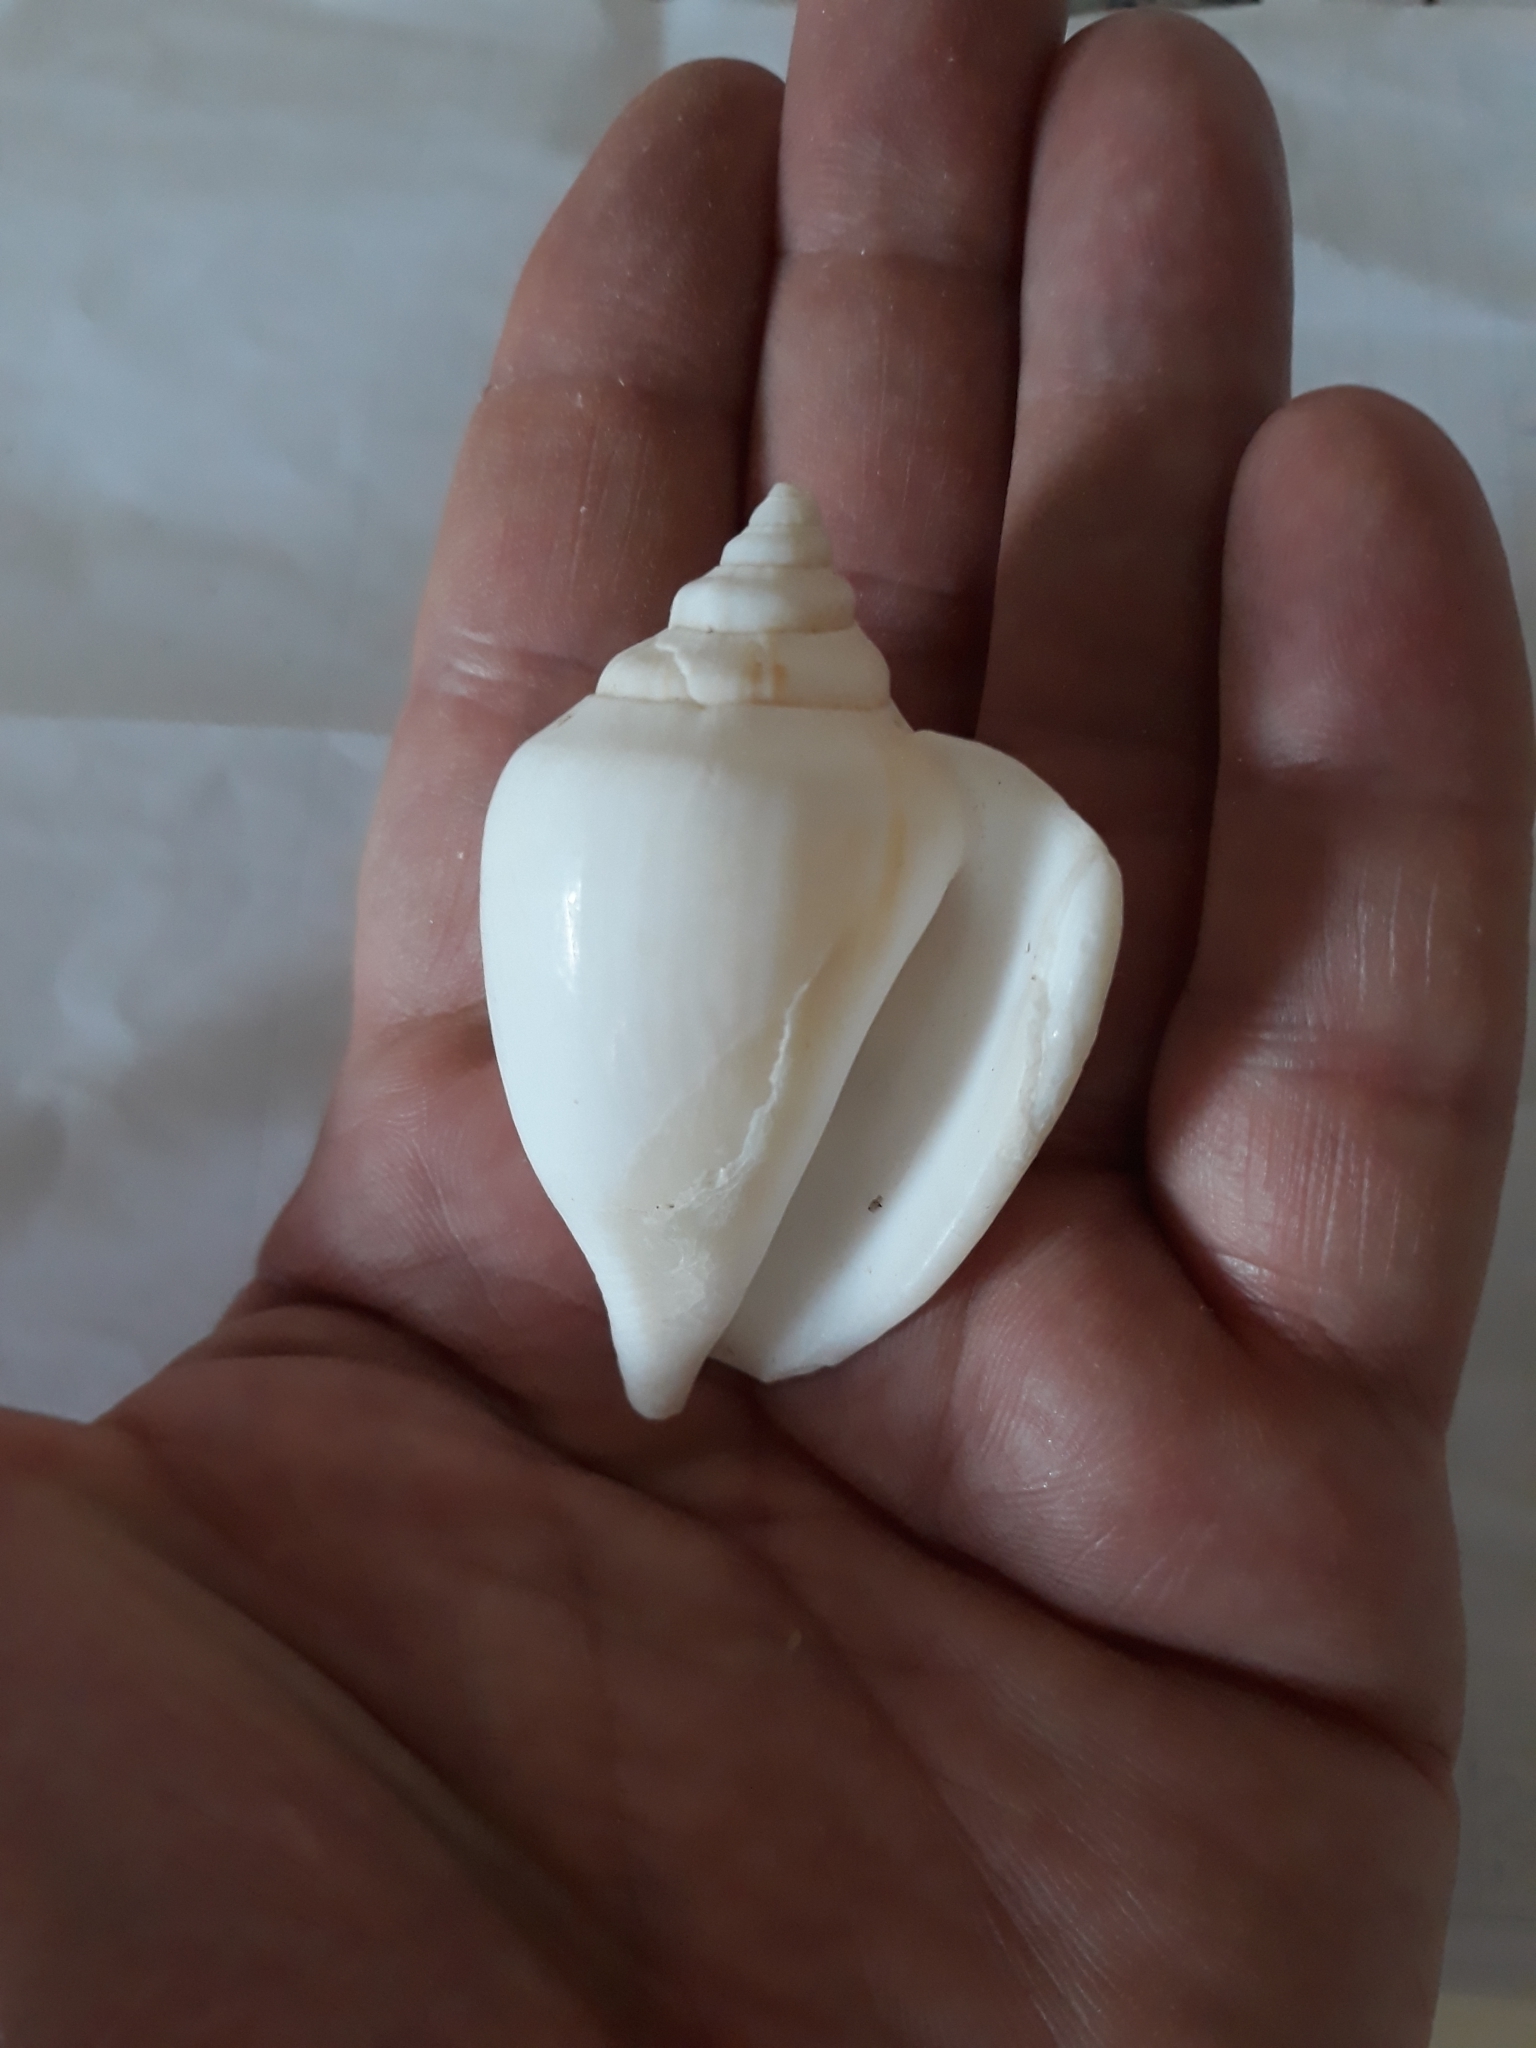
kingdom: Animalia
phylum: Mollusca
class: Gastropoda
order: Littorinimorpha
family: Strombidae
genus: Laevistrombus
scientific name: Laevistrombus canarium
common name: Dog conch
